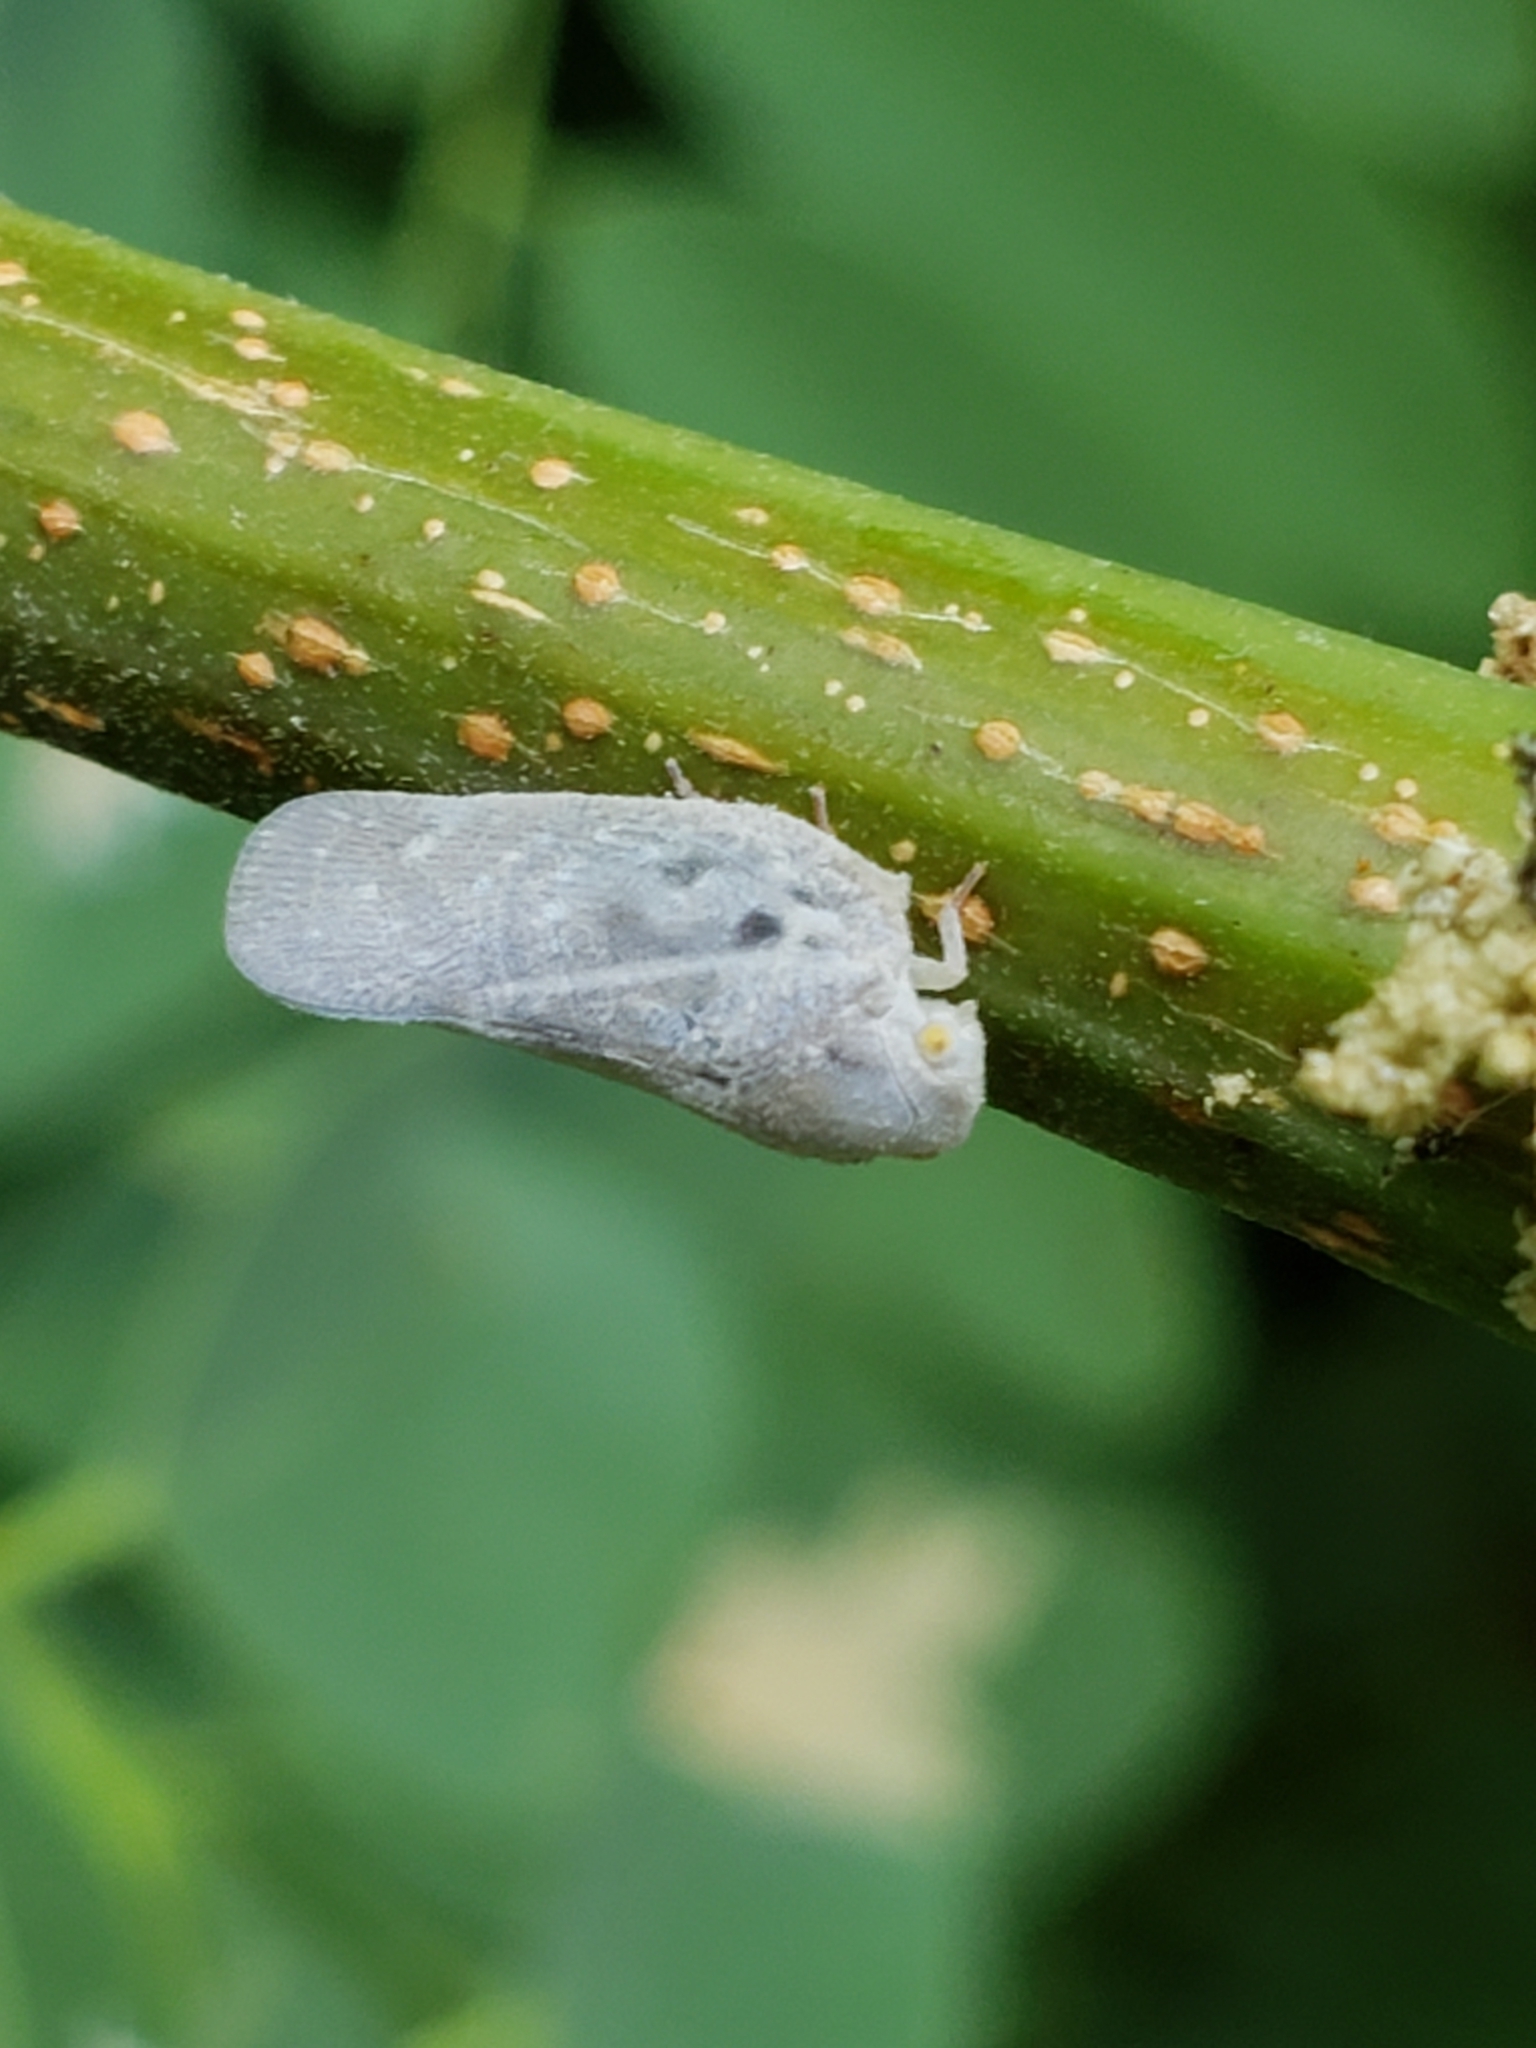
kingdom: Animalia
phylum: Arthropoda
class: Insecta
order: Hemiptera
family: Flatidae
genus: Metcalfa
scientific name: Metcalfa pruinosa
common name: Citrus flatid planthopper
